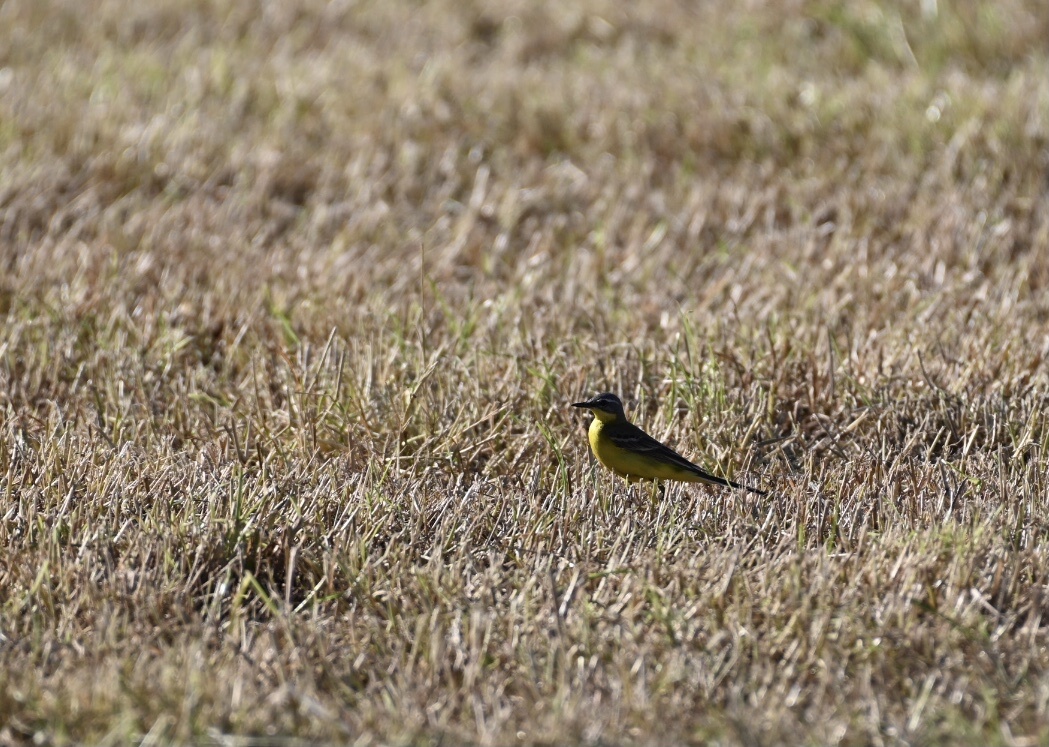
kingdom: Animalia
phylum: Chordata
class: Aves
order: Passeriformes
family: Motacillidae
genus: Motacilla
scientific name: Motacilla flava
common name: Western yellow wagtail
